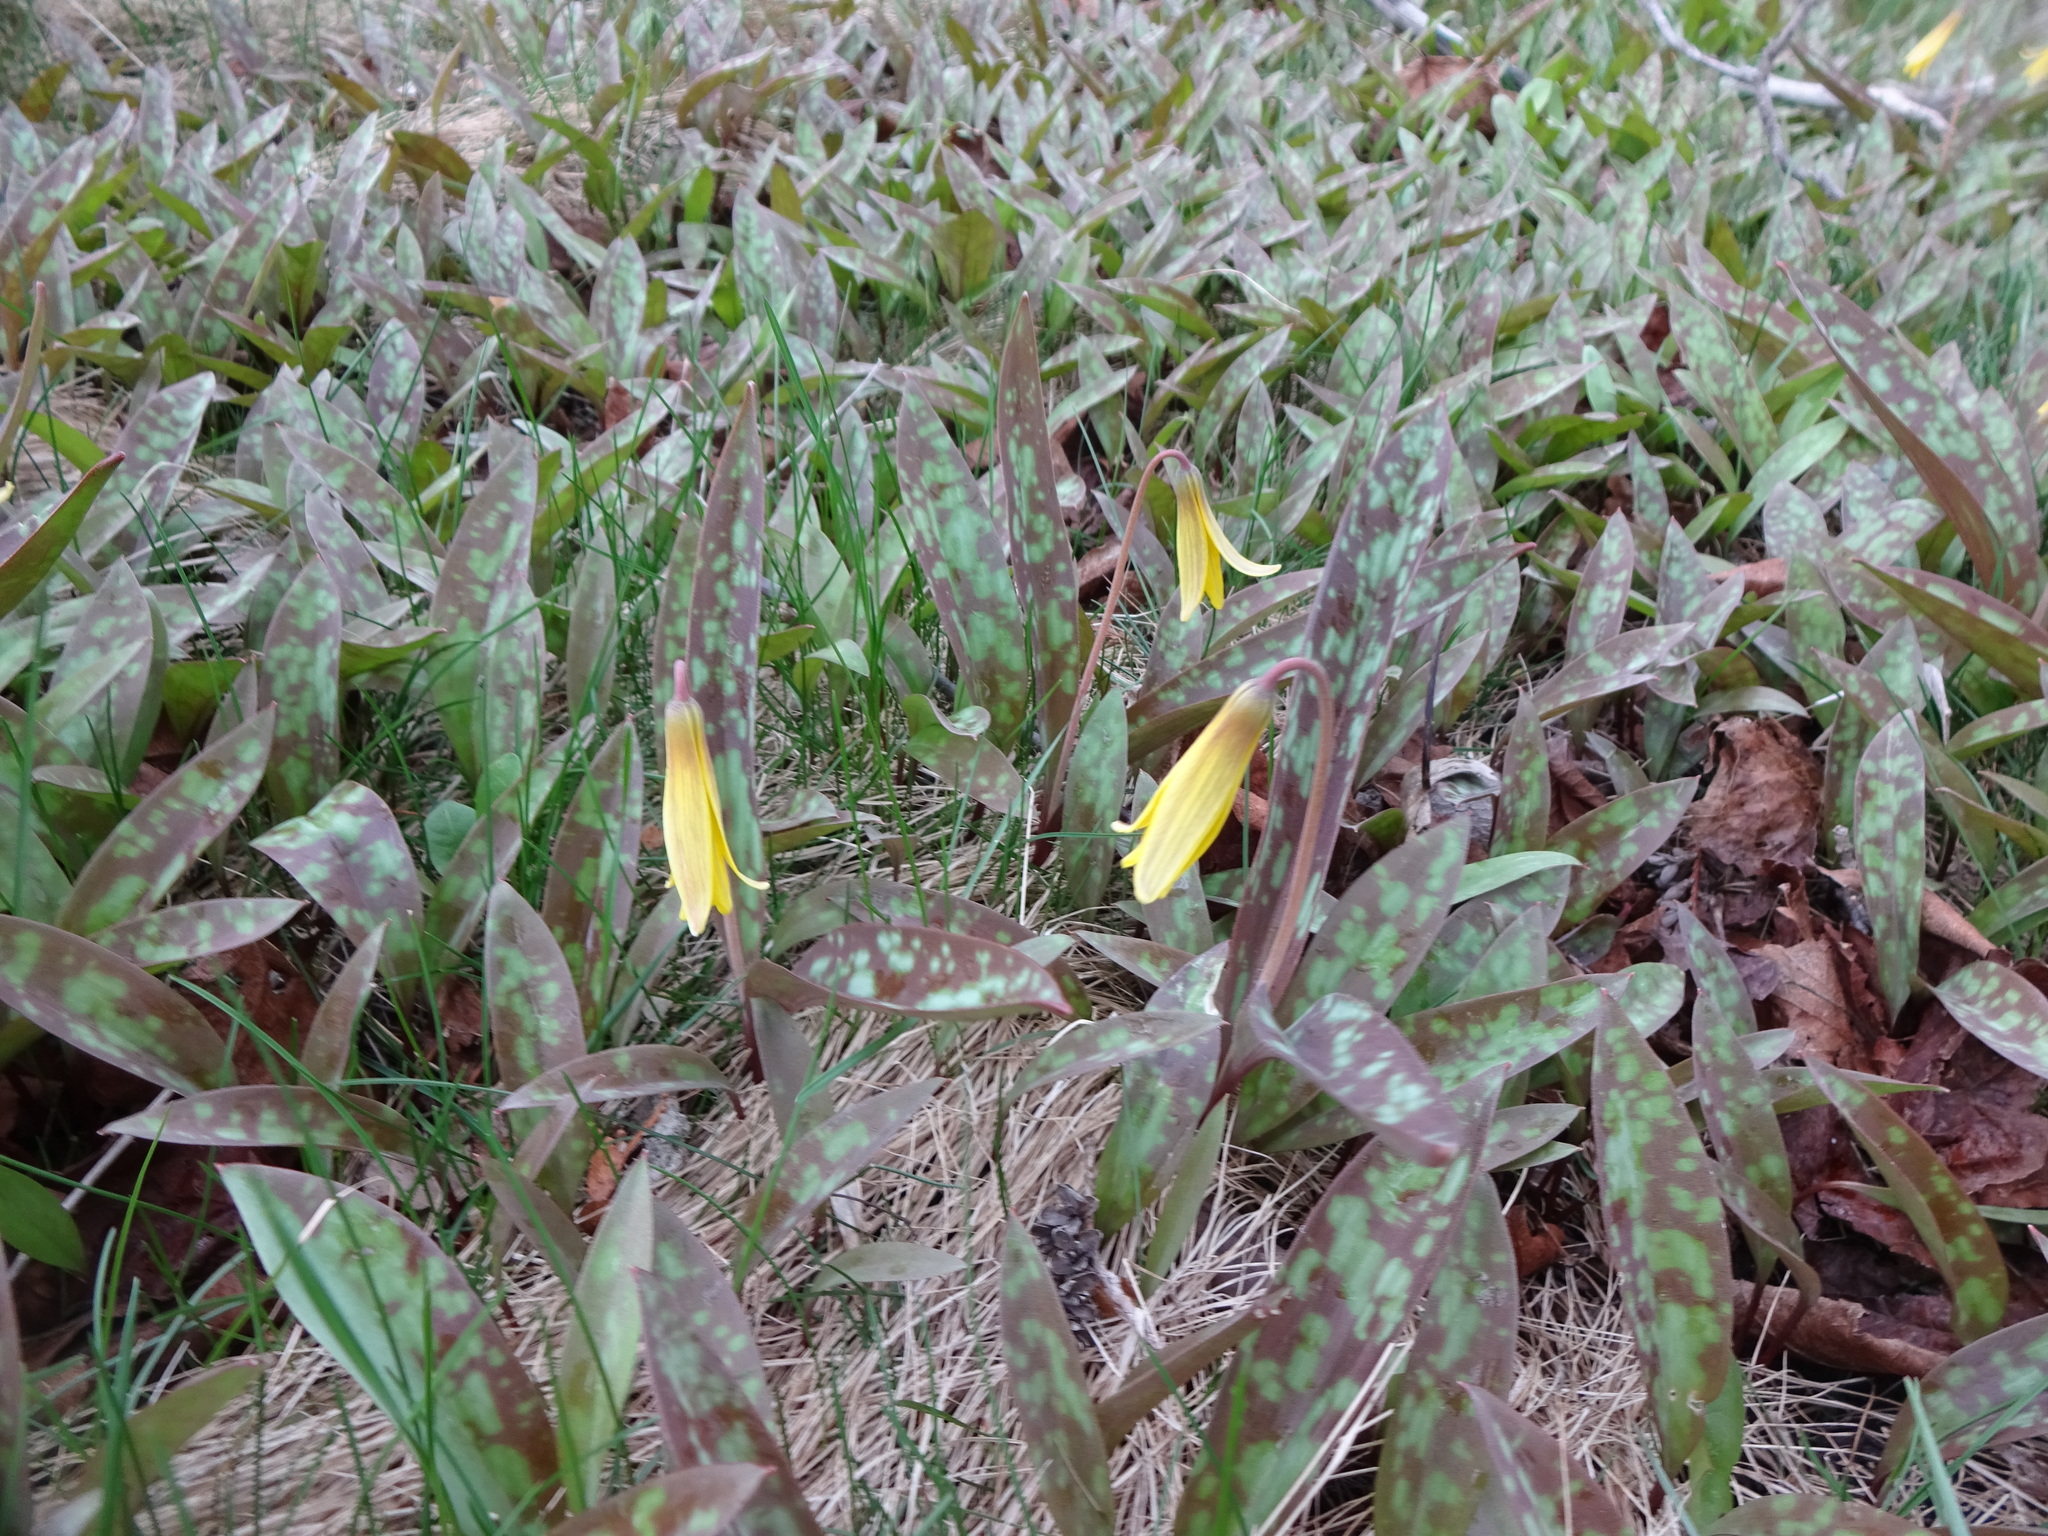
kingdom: Plantae
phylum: Tracheophyta
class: Liliopsida
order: Liliales
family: Liliaceae
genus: Erythronium
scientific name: Erythronium americanum
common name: Yellow adder's-tongue
